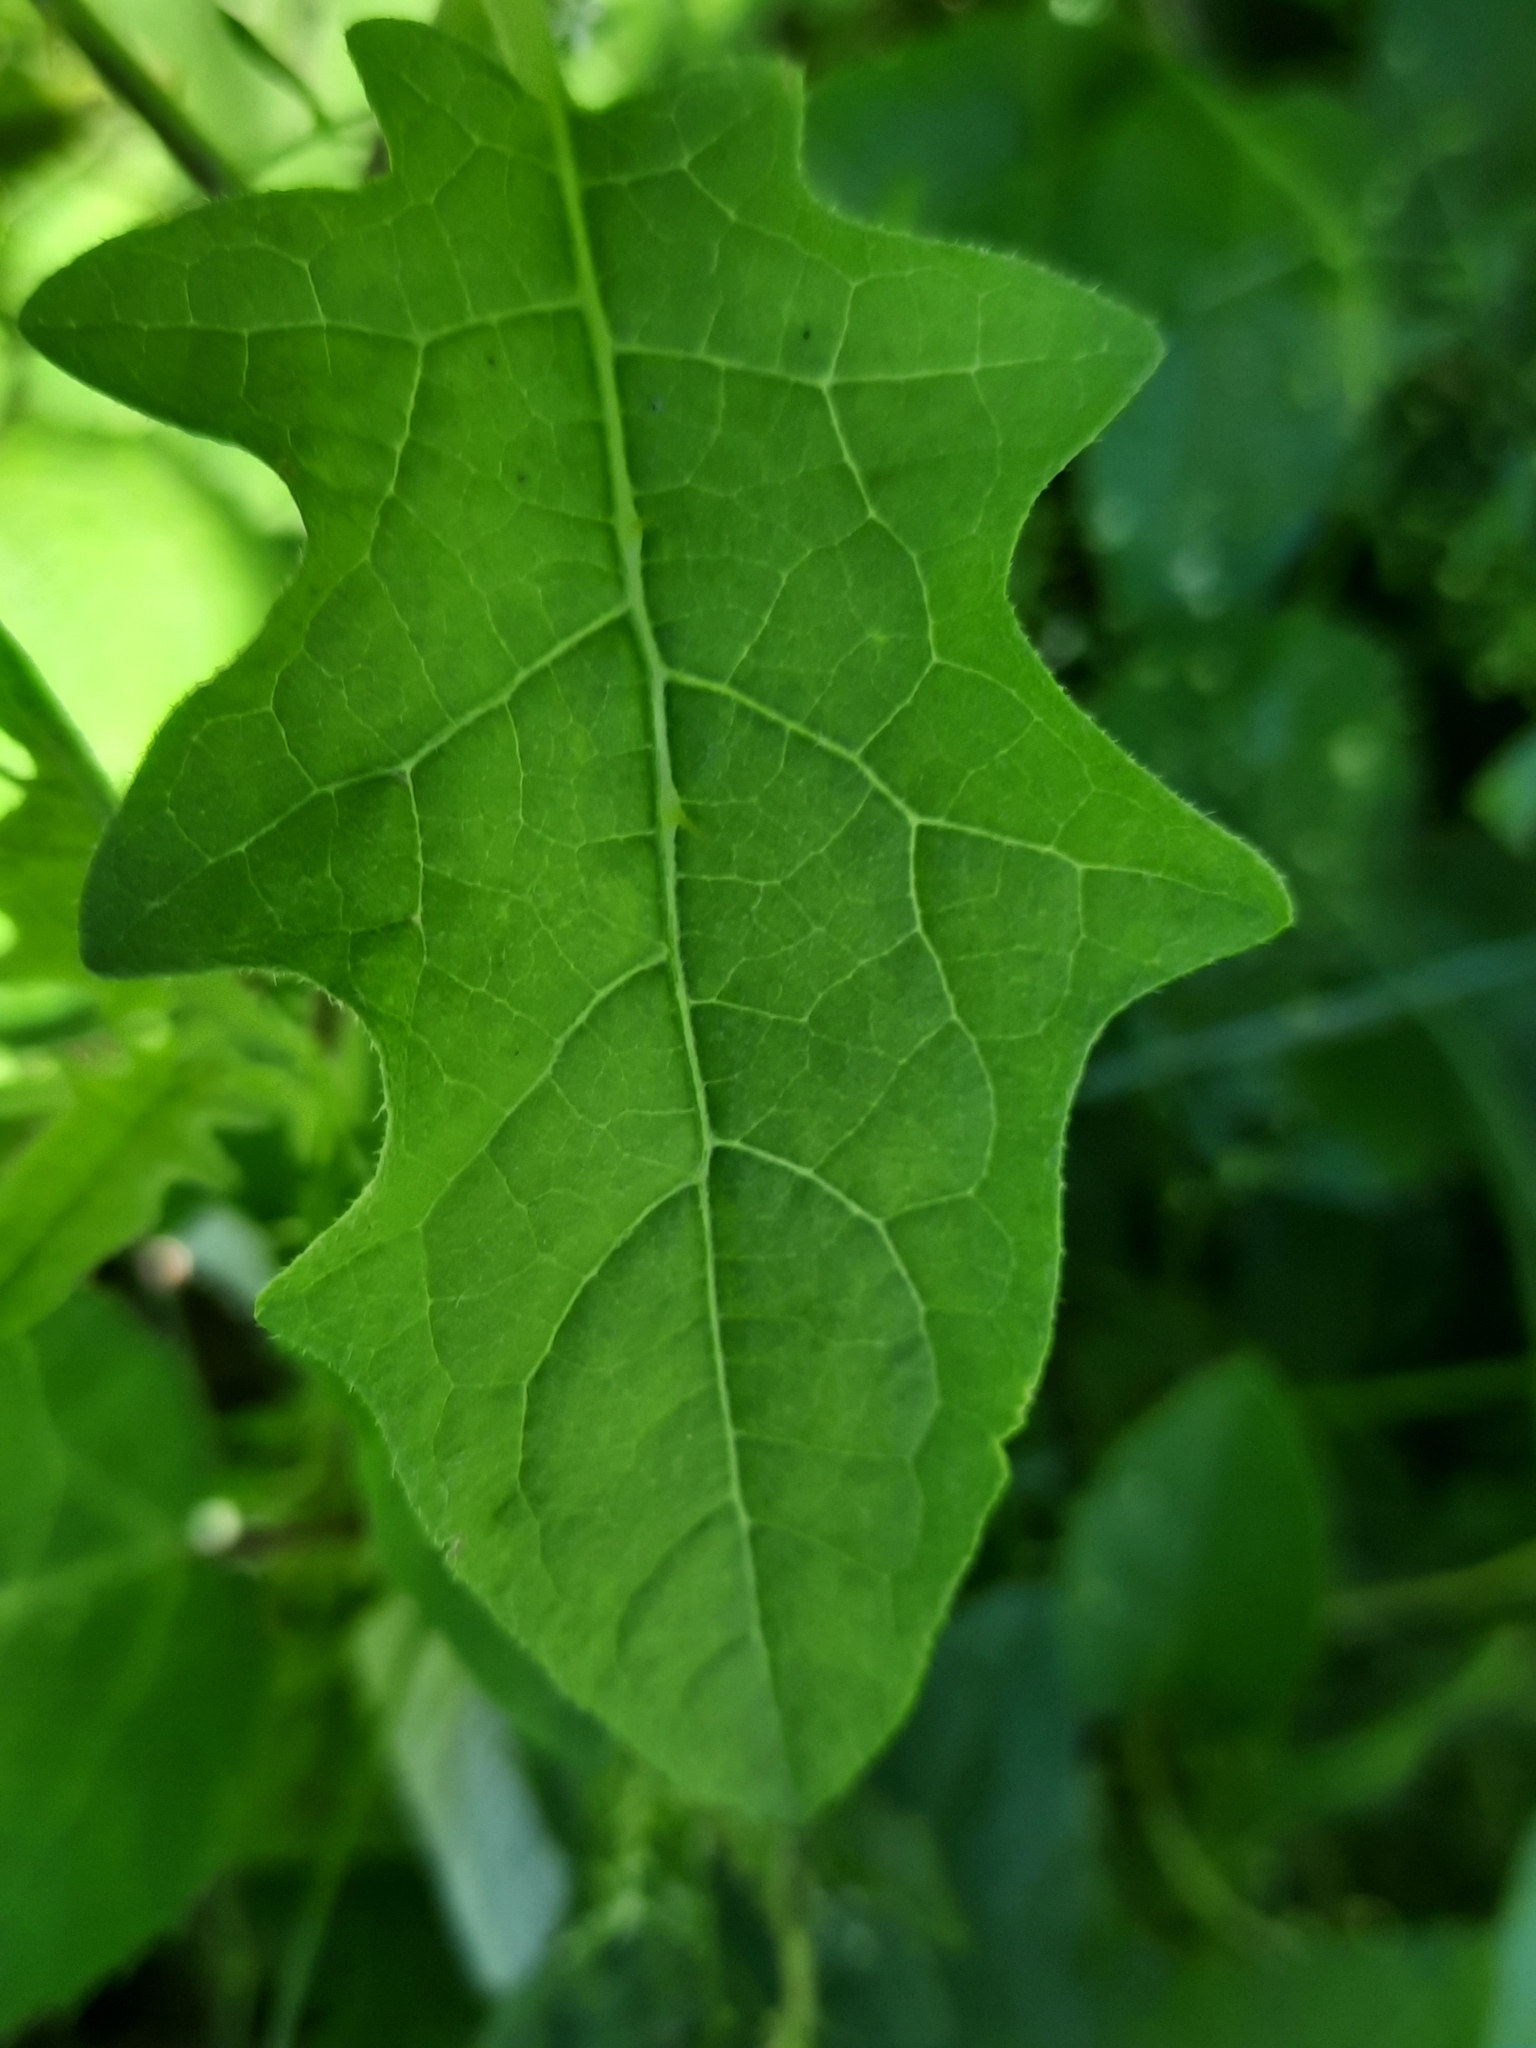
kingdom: Plantae
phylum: Tracheophyta
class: Magnoliopsida
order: Solanales
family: Solanaceae
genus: Solanum
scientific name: Solanum carolinense
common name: Horse-nettle
